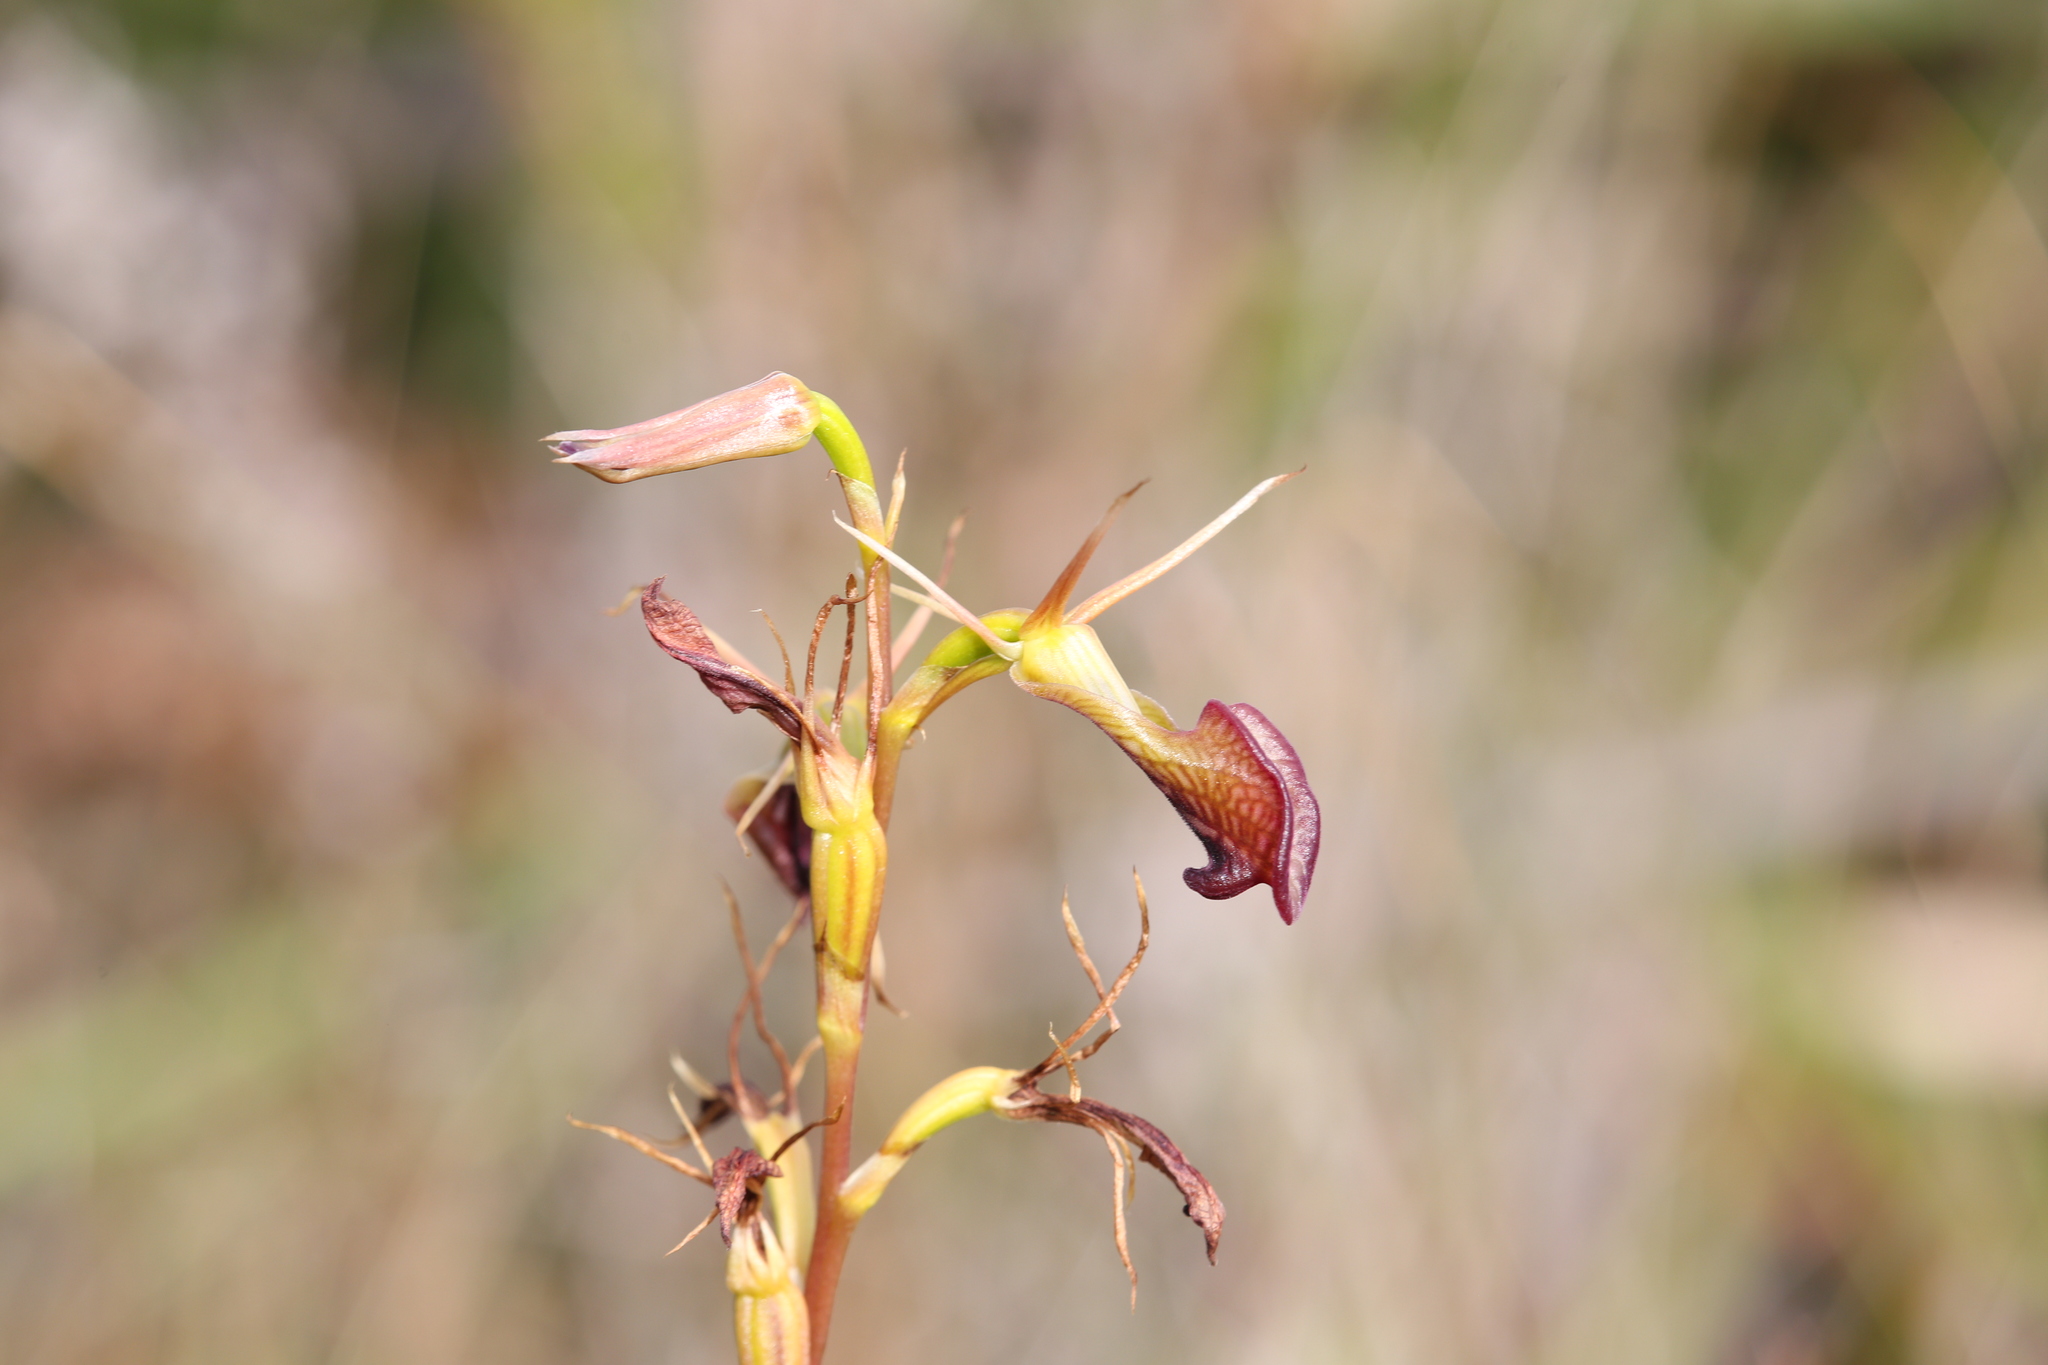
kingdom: Plantae
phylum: Tracheophyta
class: Liliopsida
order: Asparagales
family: Orchidaceae
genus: Cryptostylis
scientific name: Cryptostylis ovata
